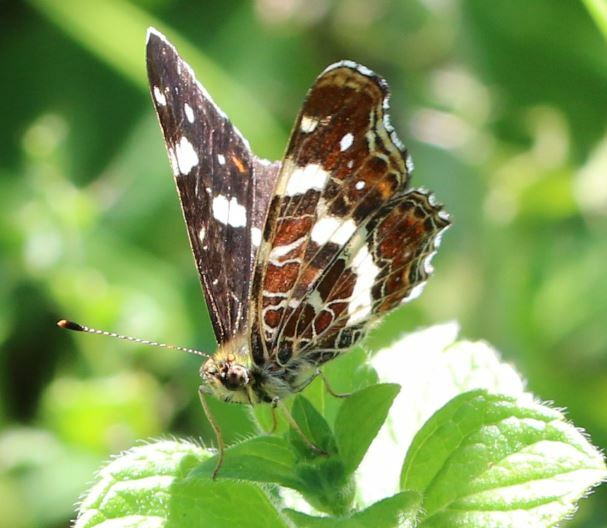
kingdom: Animalia
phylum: Arthropoda
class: Insecta
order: Lepidoptera
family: Nymphalidae
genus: Araschnia
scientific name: Araschnia levana
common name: Map butterfly
